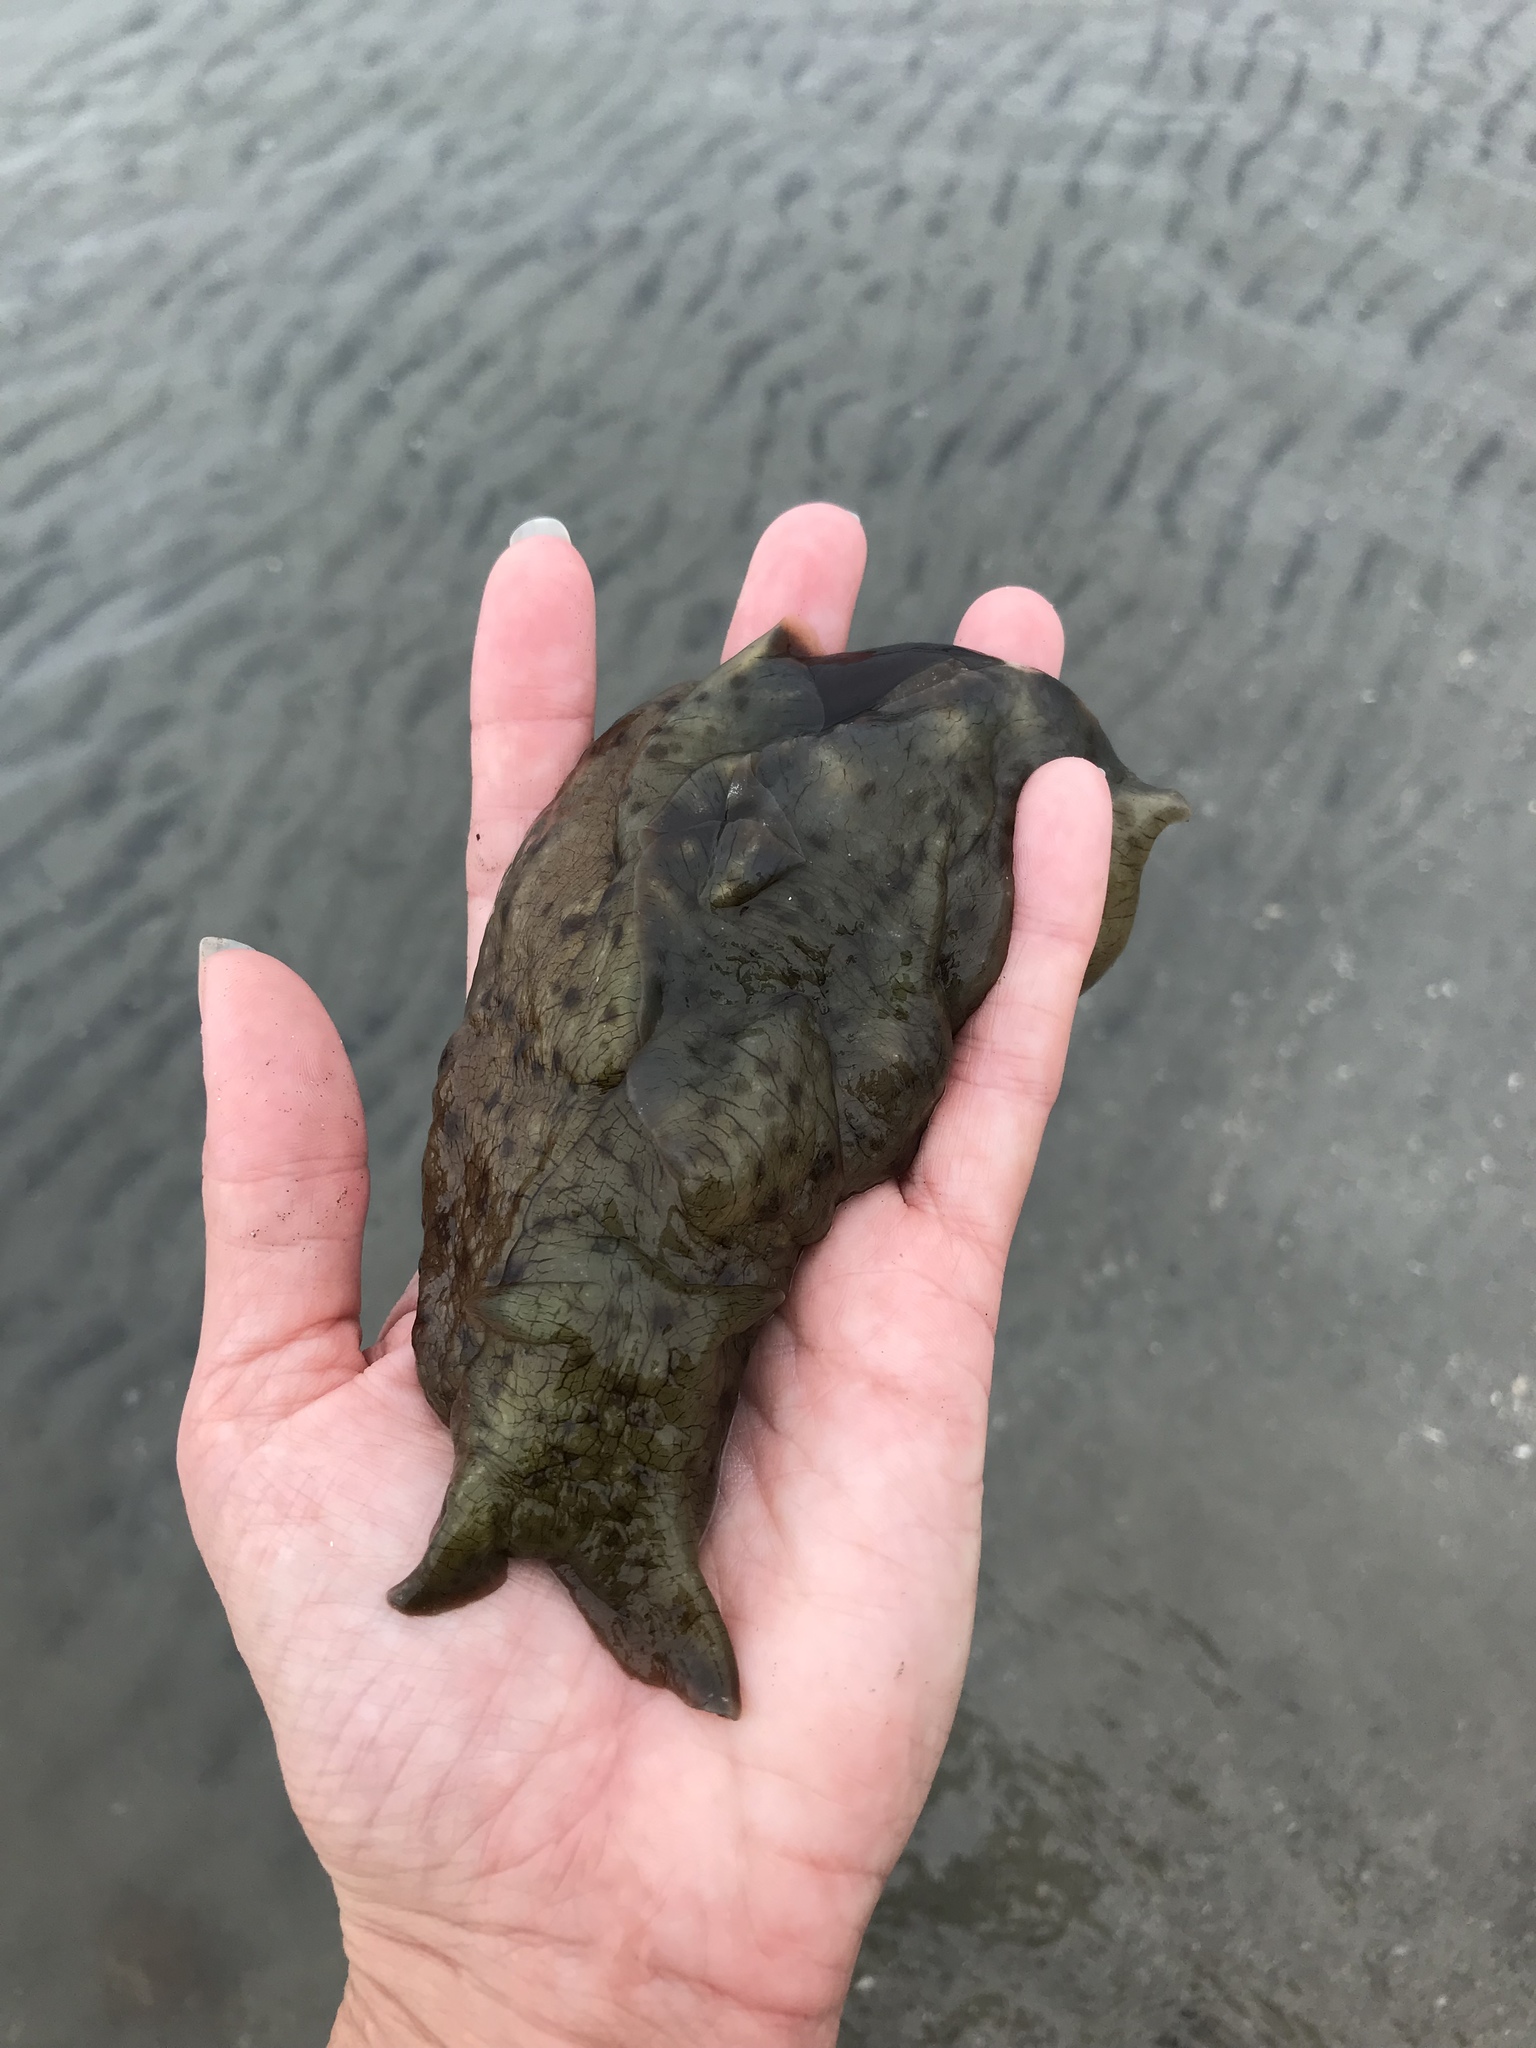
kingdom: Animalia
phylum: Mollusca
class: Gastropoda
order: Aplysiida
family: Aplysiidae
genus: Aplysia
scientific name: Aplysia californica
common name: California seahare
